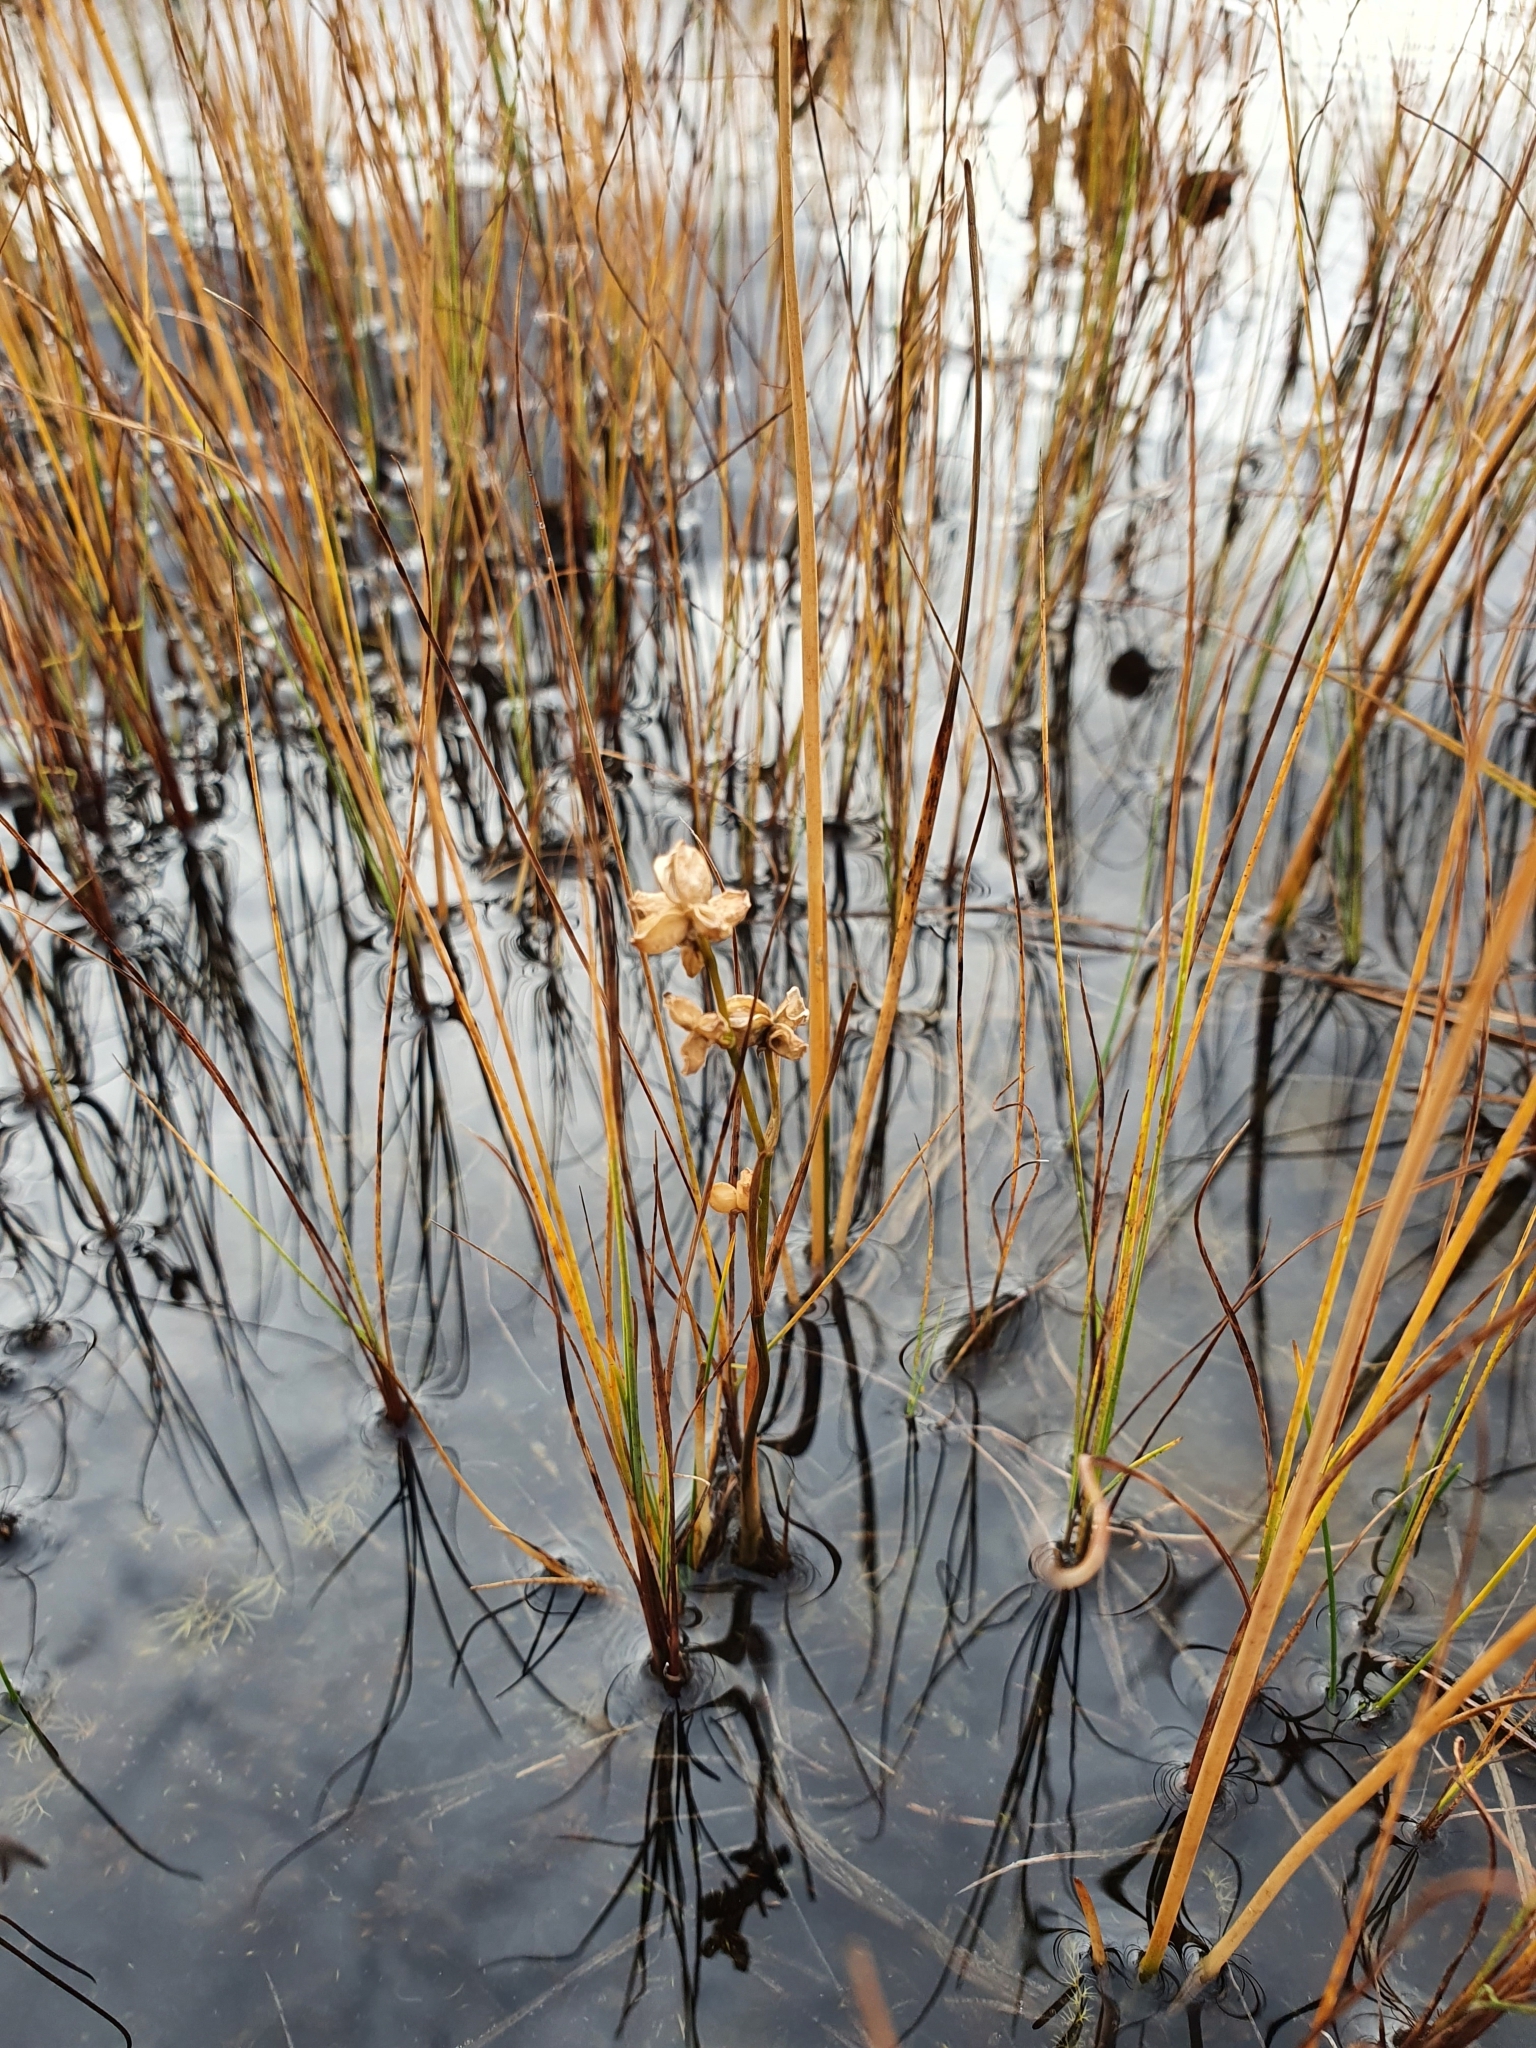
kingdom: Plantae
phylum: Tracheophyta
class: Liliopsida
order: Alismatales
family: Scheuchzeriaceae
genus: Scheuchzeria
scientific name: Scheuchzeria palustris
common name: Rannoch-rush
